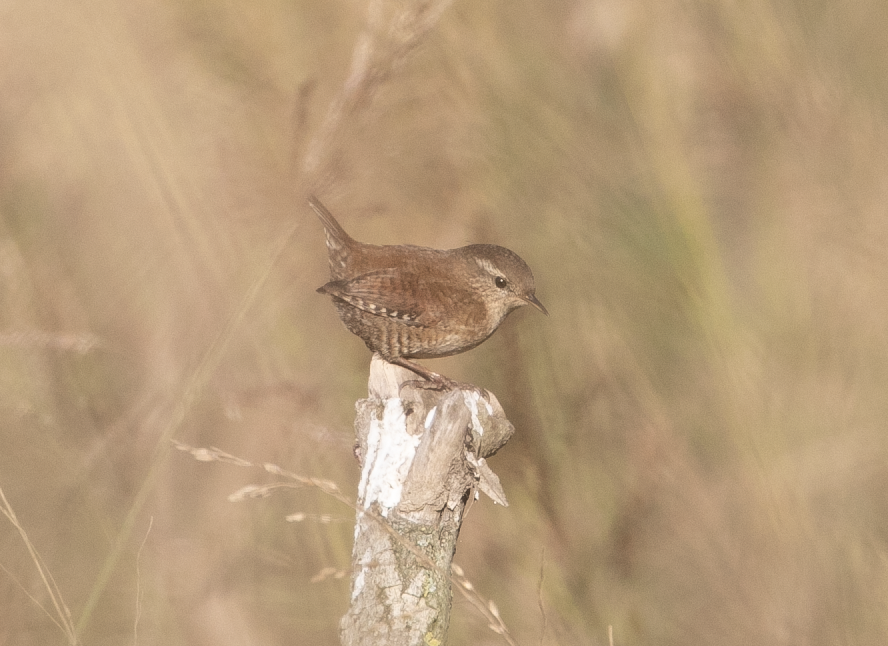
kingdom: Animalia
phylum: Chordata
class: Aves
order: Passeriformes
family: Troglodytidae
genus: Troglodytes
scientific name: Troglodytes troglodytes
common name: Eurasian wren
